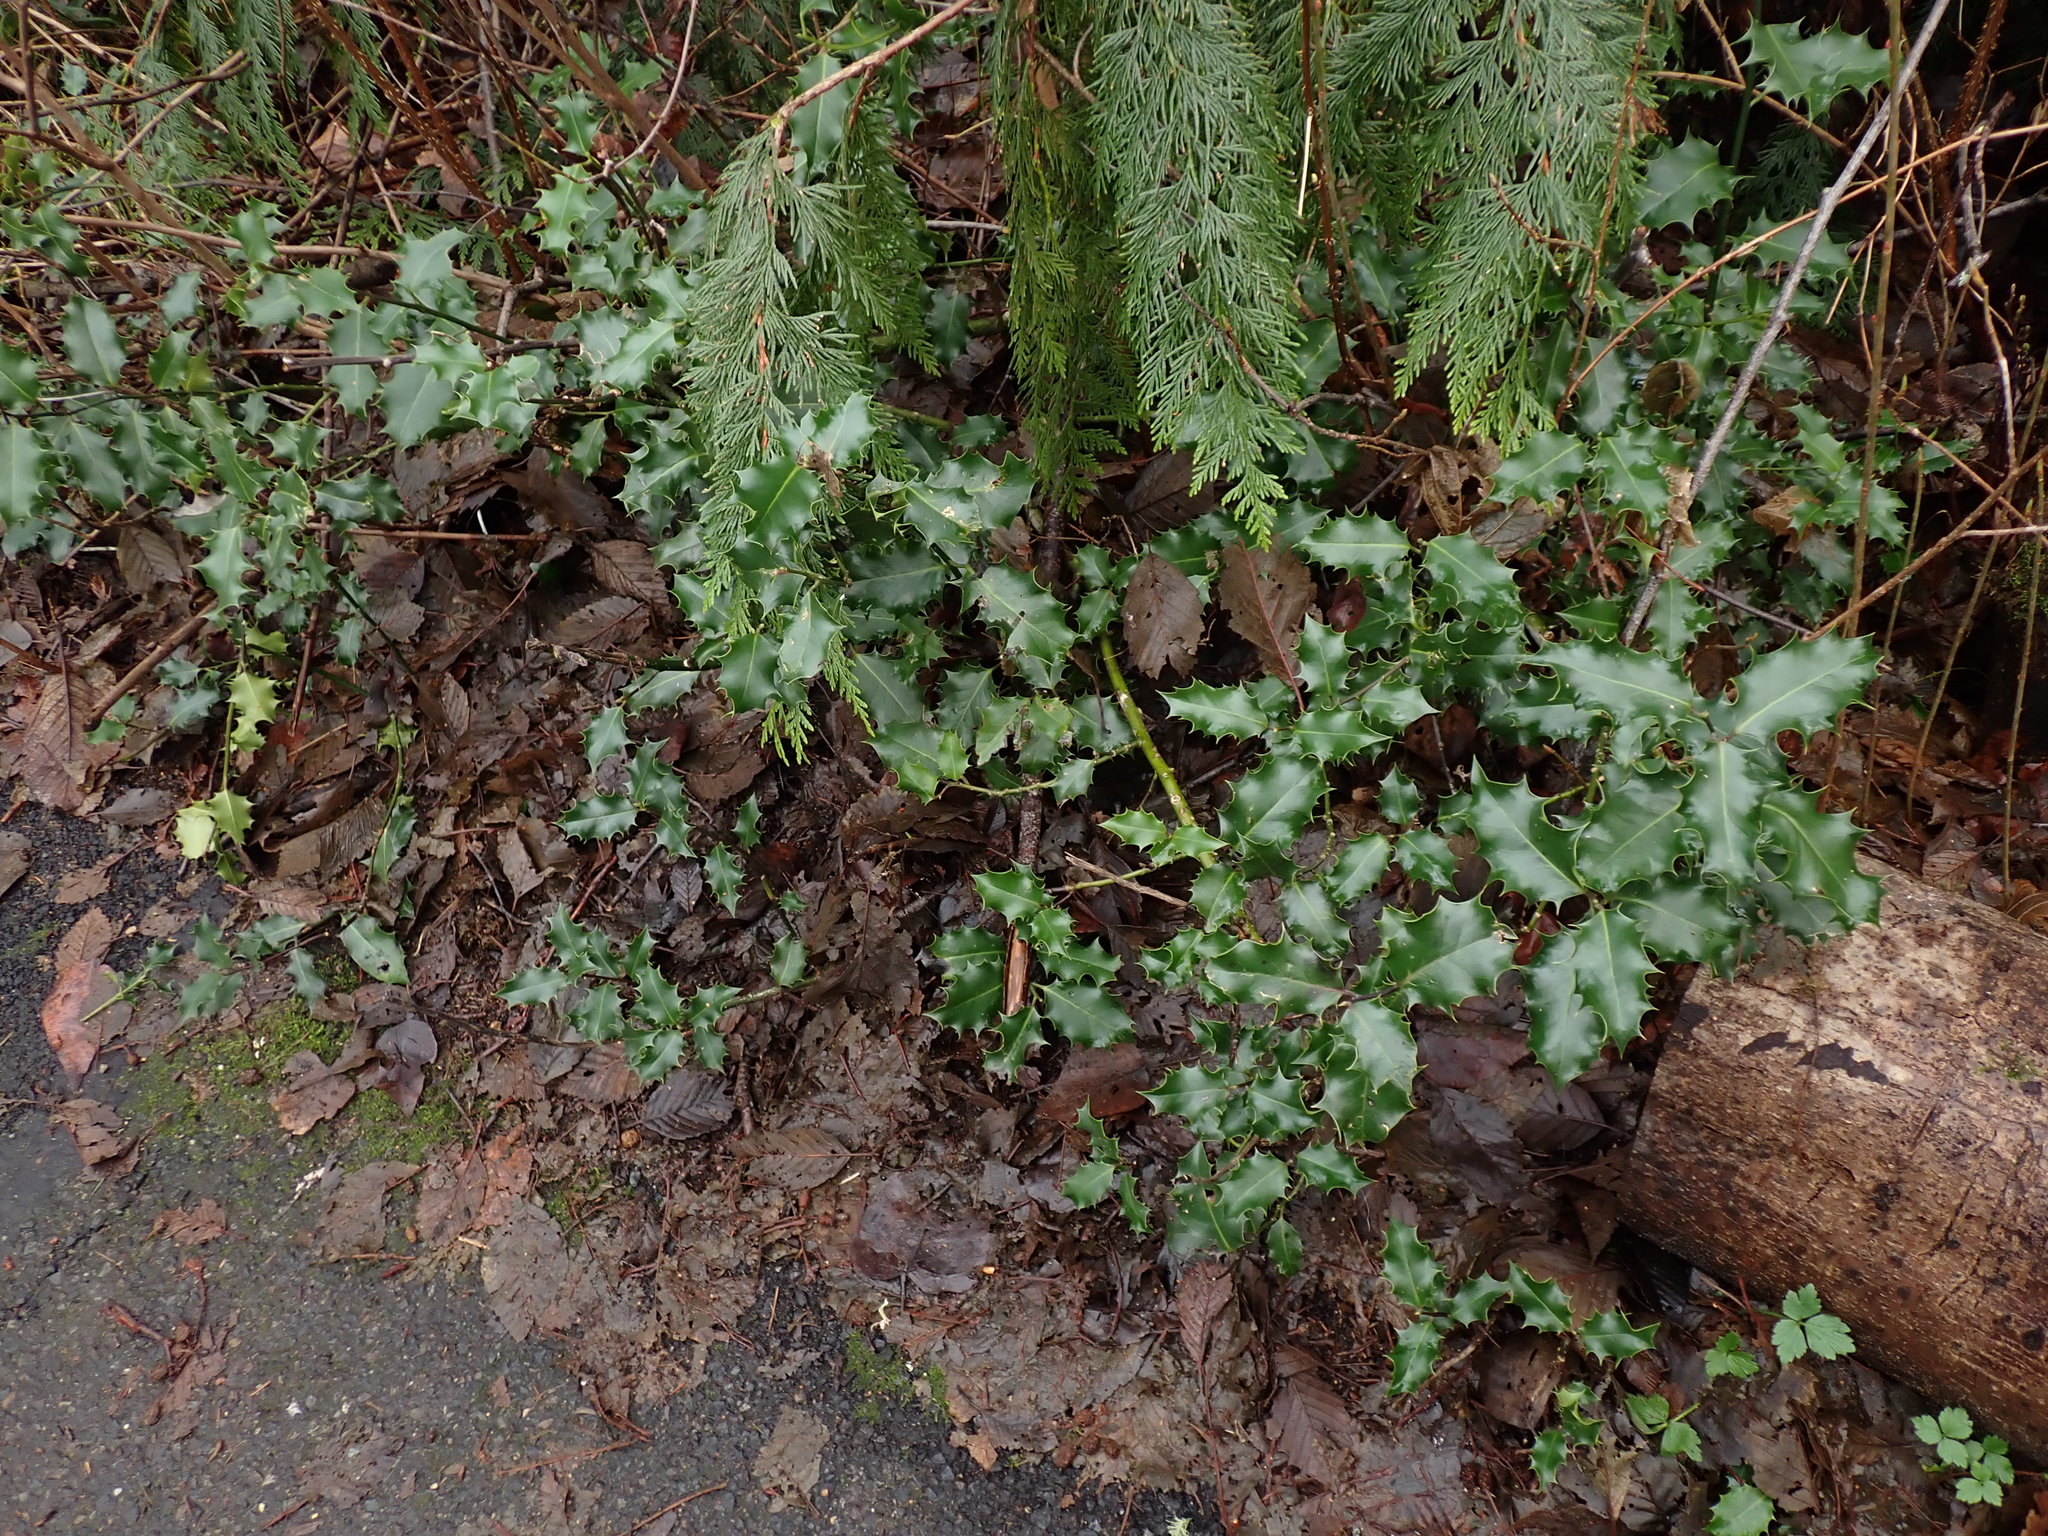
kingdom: Plantae
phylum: Tracheophyta
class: Magnoliopsida
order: Aquifoliales
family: Aquifoliaceae
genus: Ilex
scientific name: Ilex aquifolium
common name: English holly
